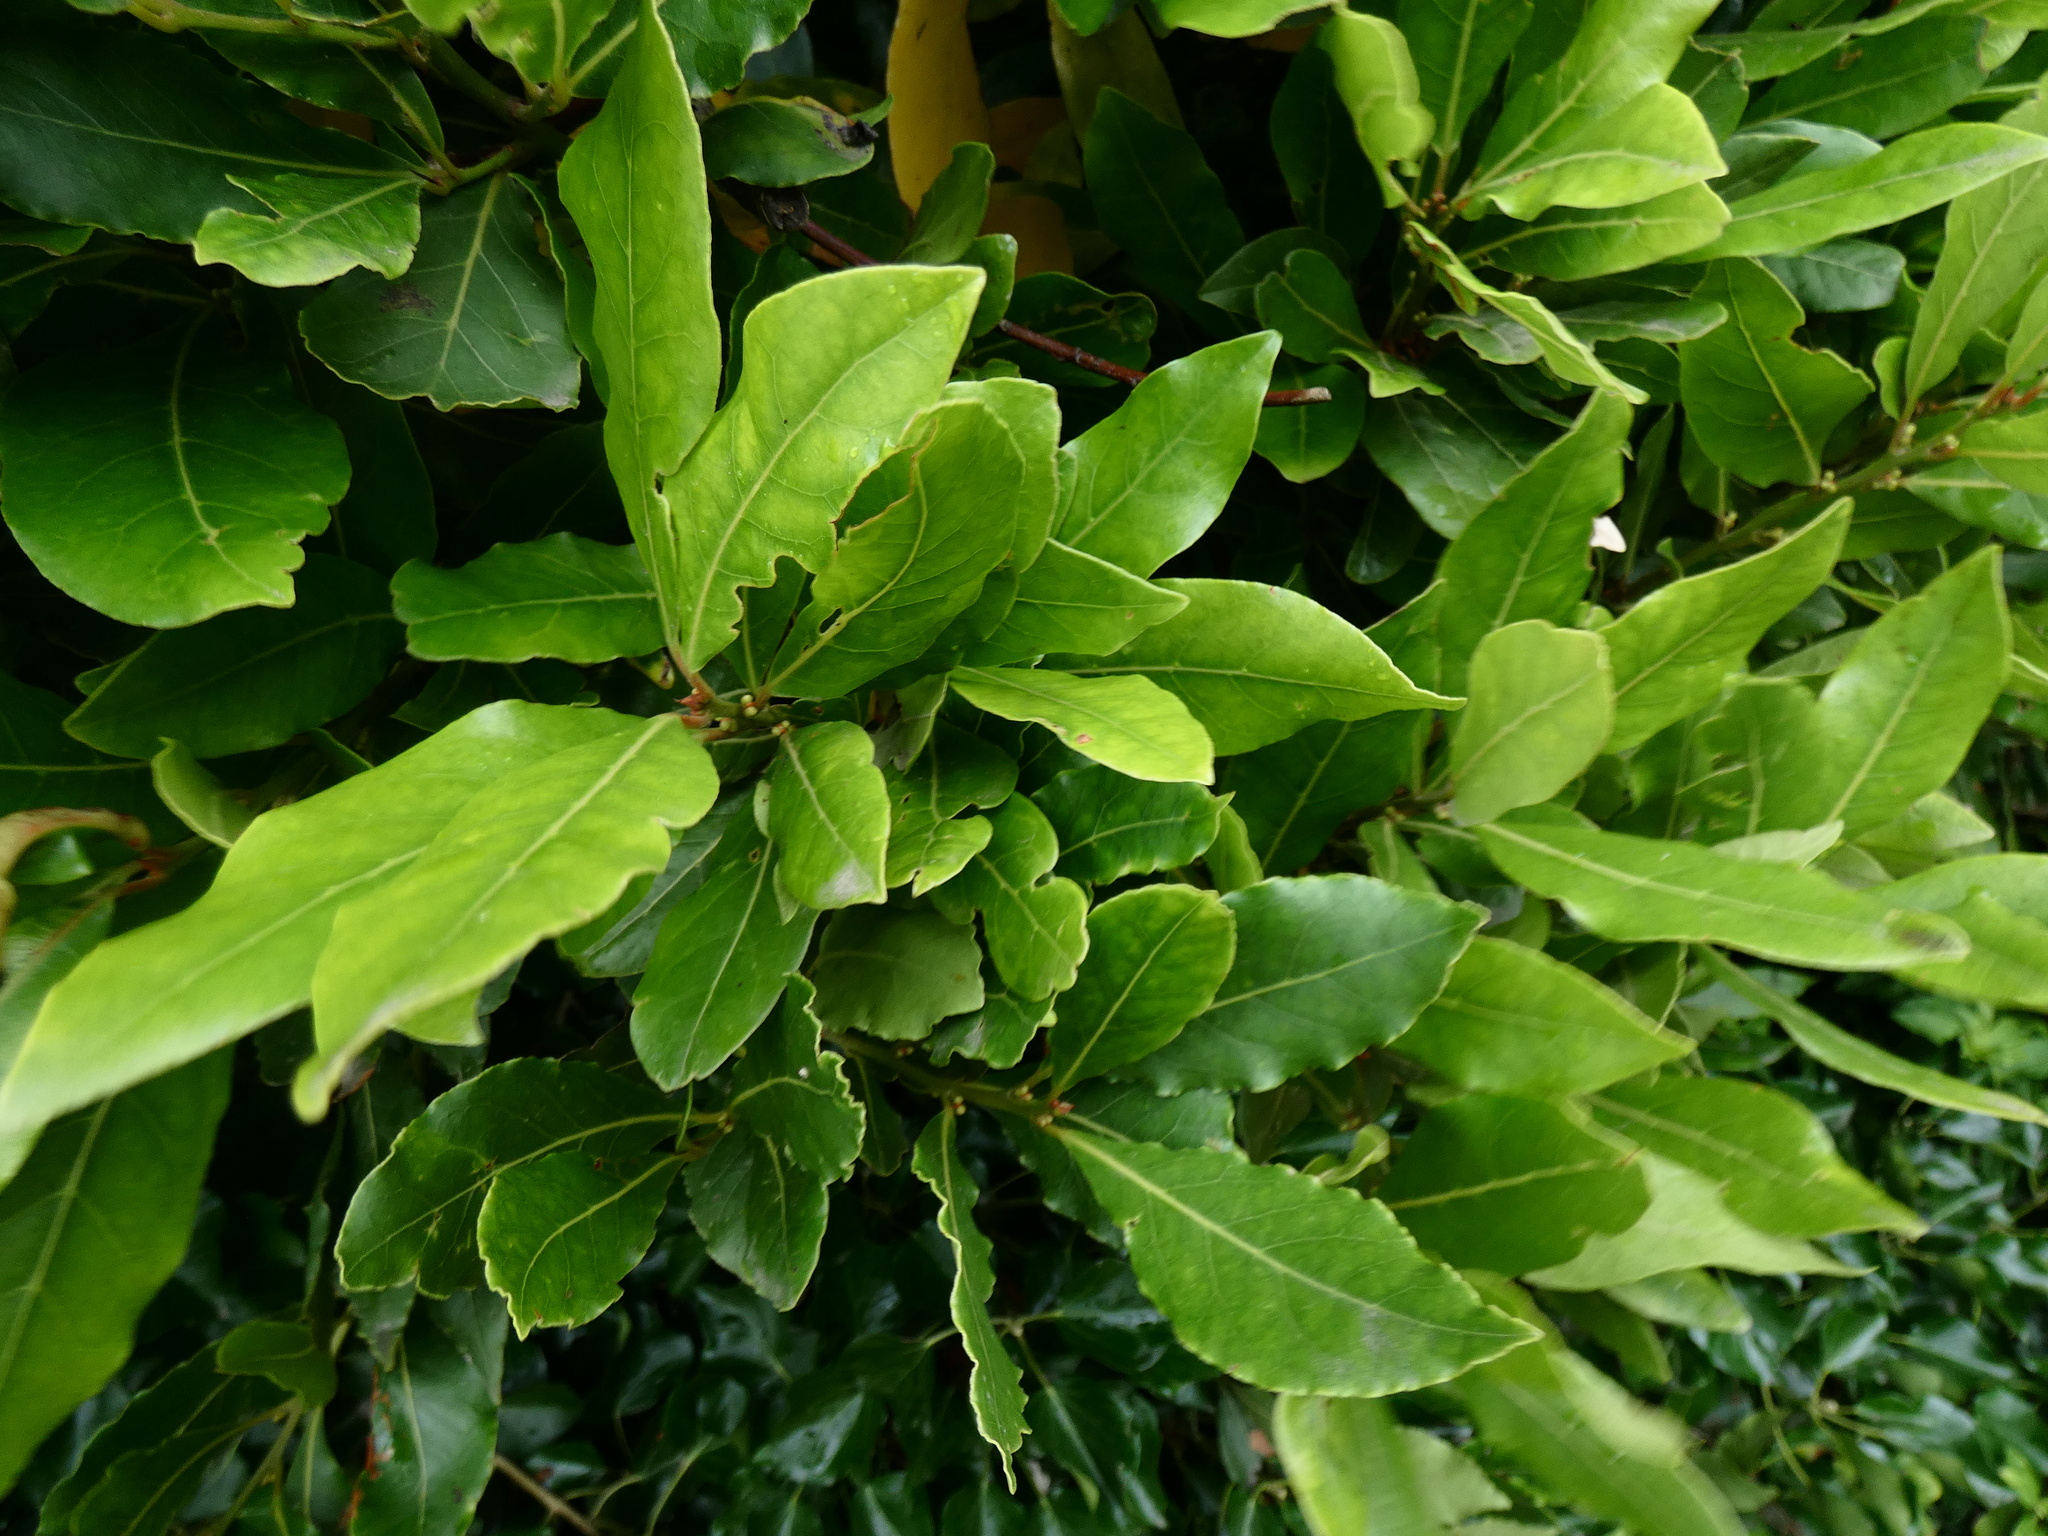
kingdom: Plantae
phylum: Tracheophyta
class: Magnoliopsida
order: Laurales
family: Lauraceae
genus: Laurus
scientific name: Laurus nobilis
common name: Bay
